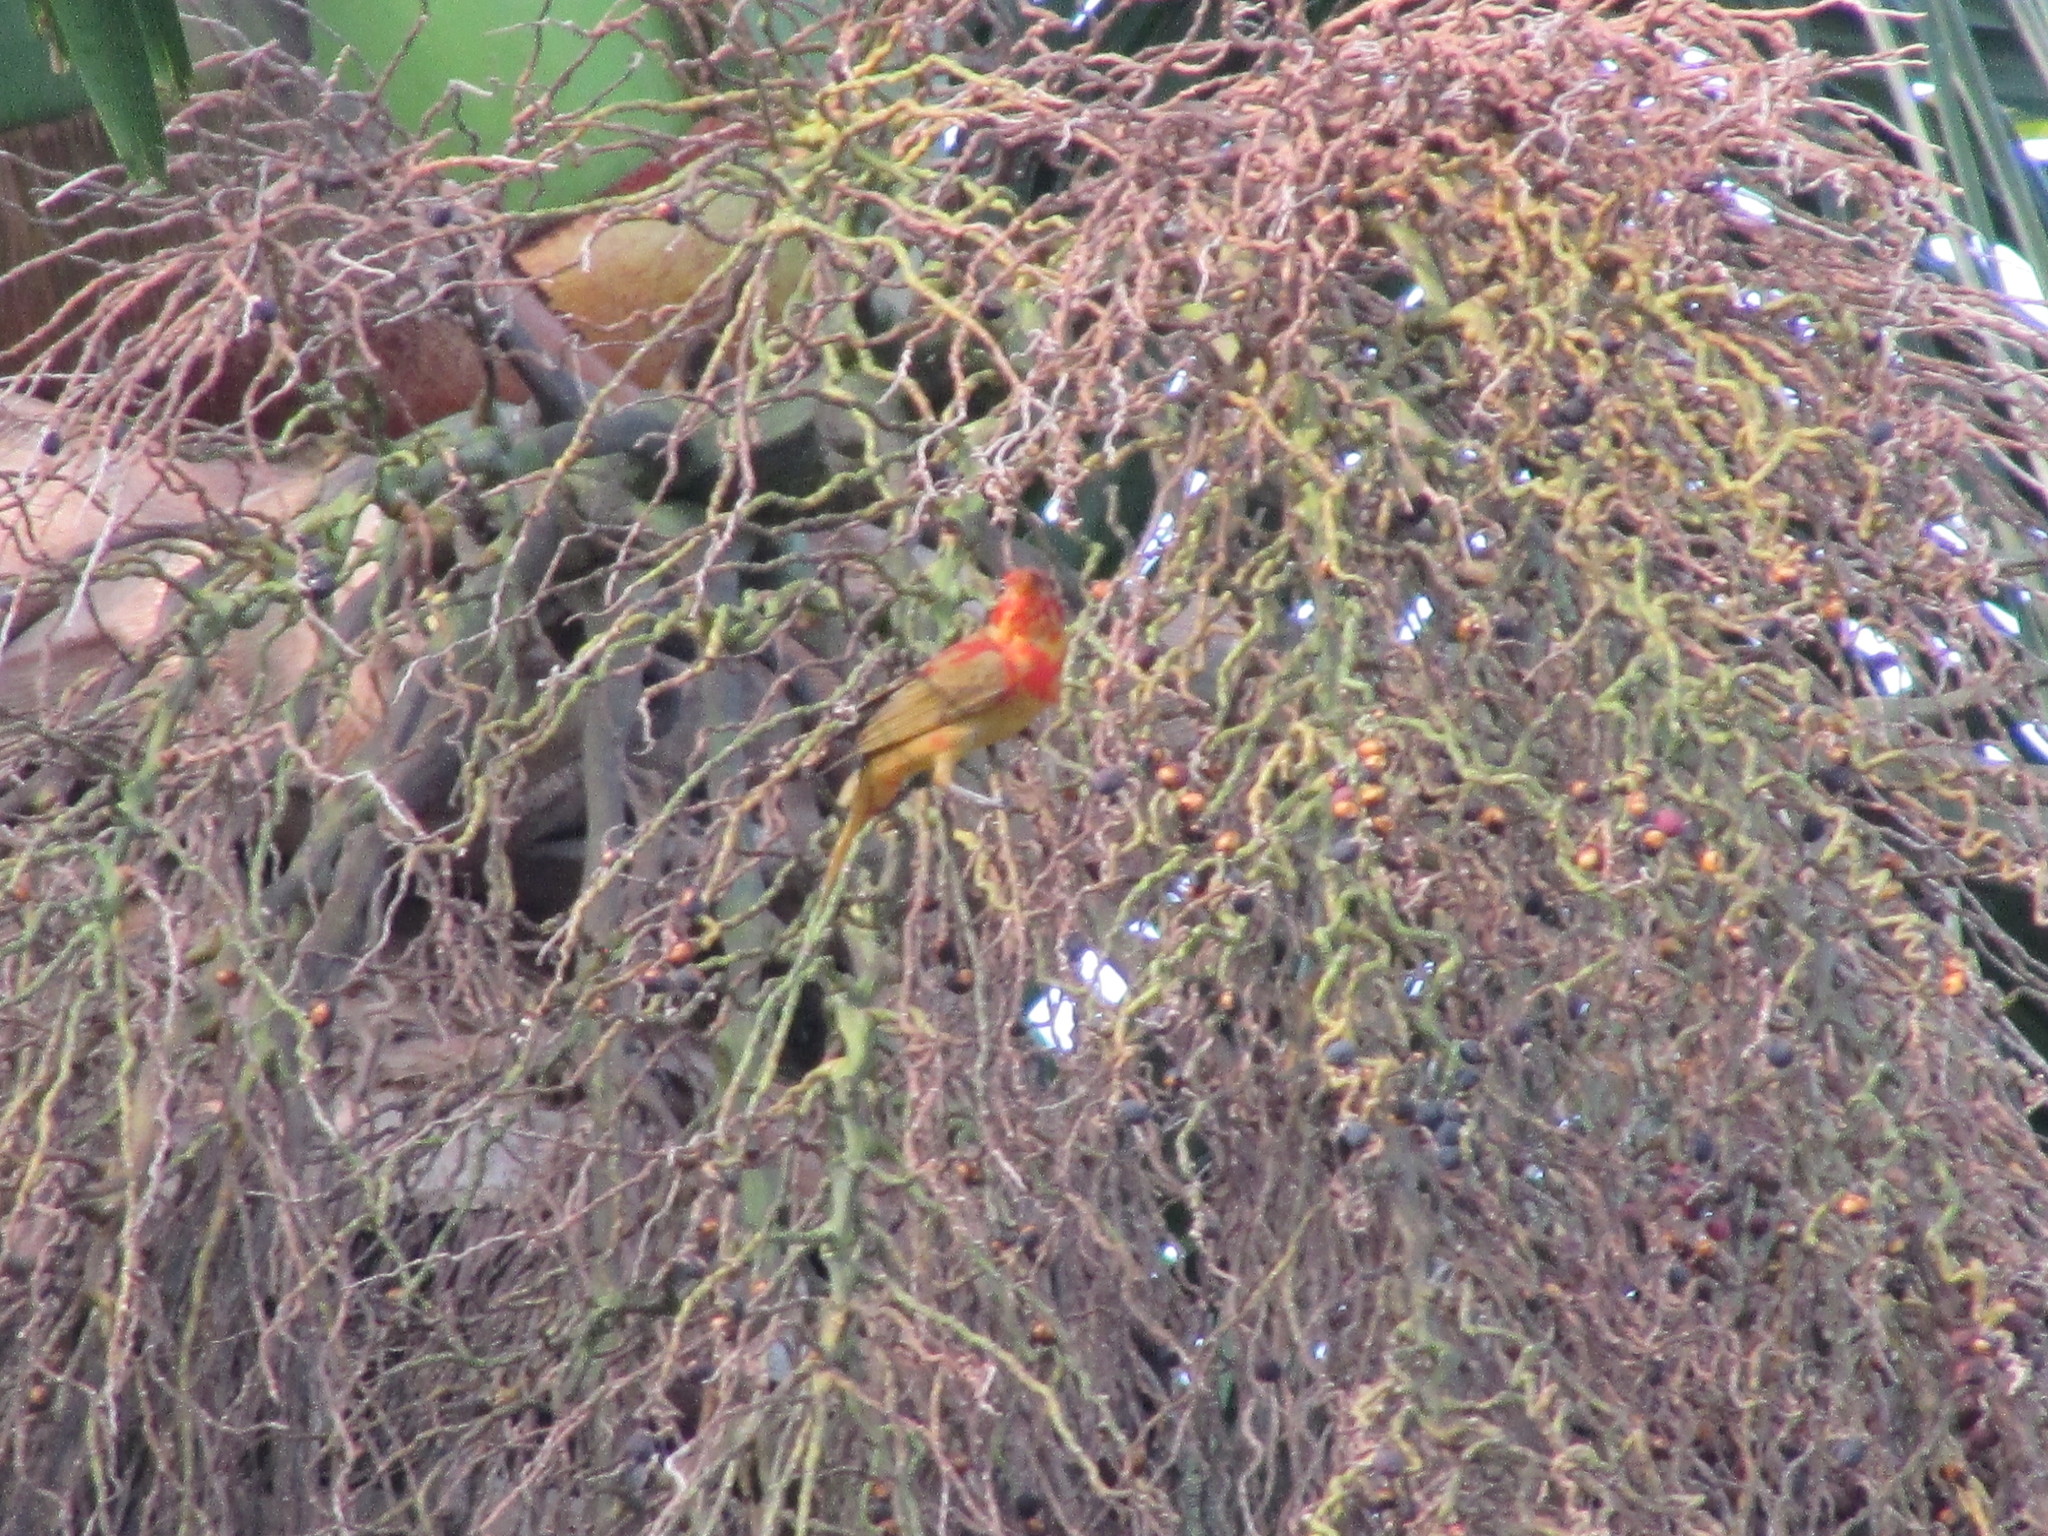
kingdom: Animalia
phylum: Chordata
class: Aves
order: Passeriformes
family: Cardinalidae
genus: Piranga
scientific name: Piranga rubra
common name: Summer tanager
